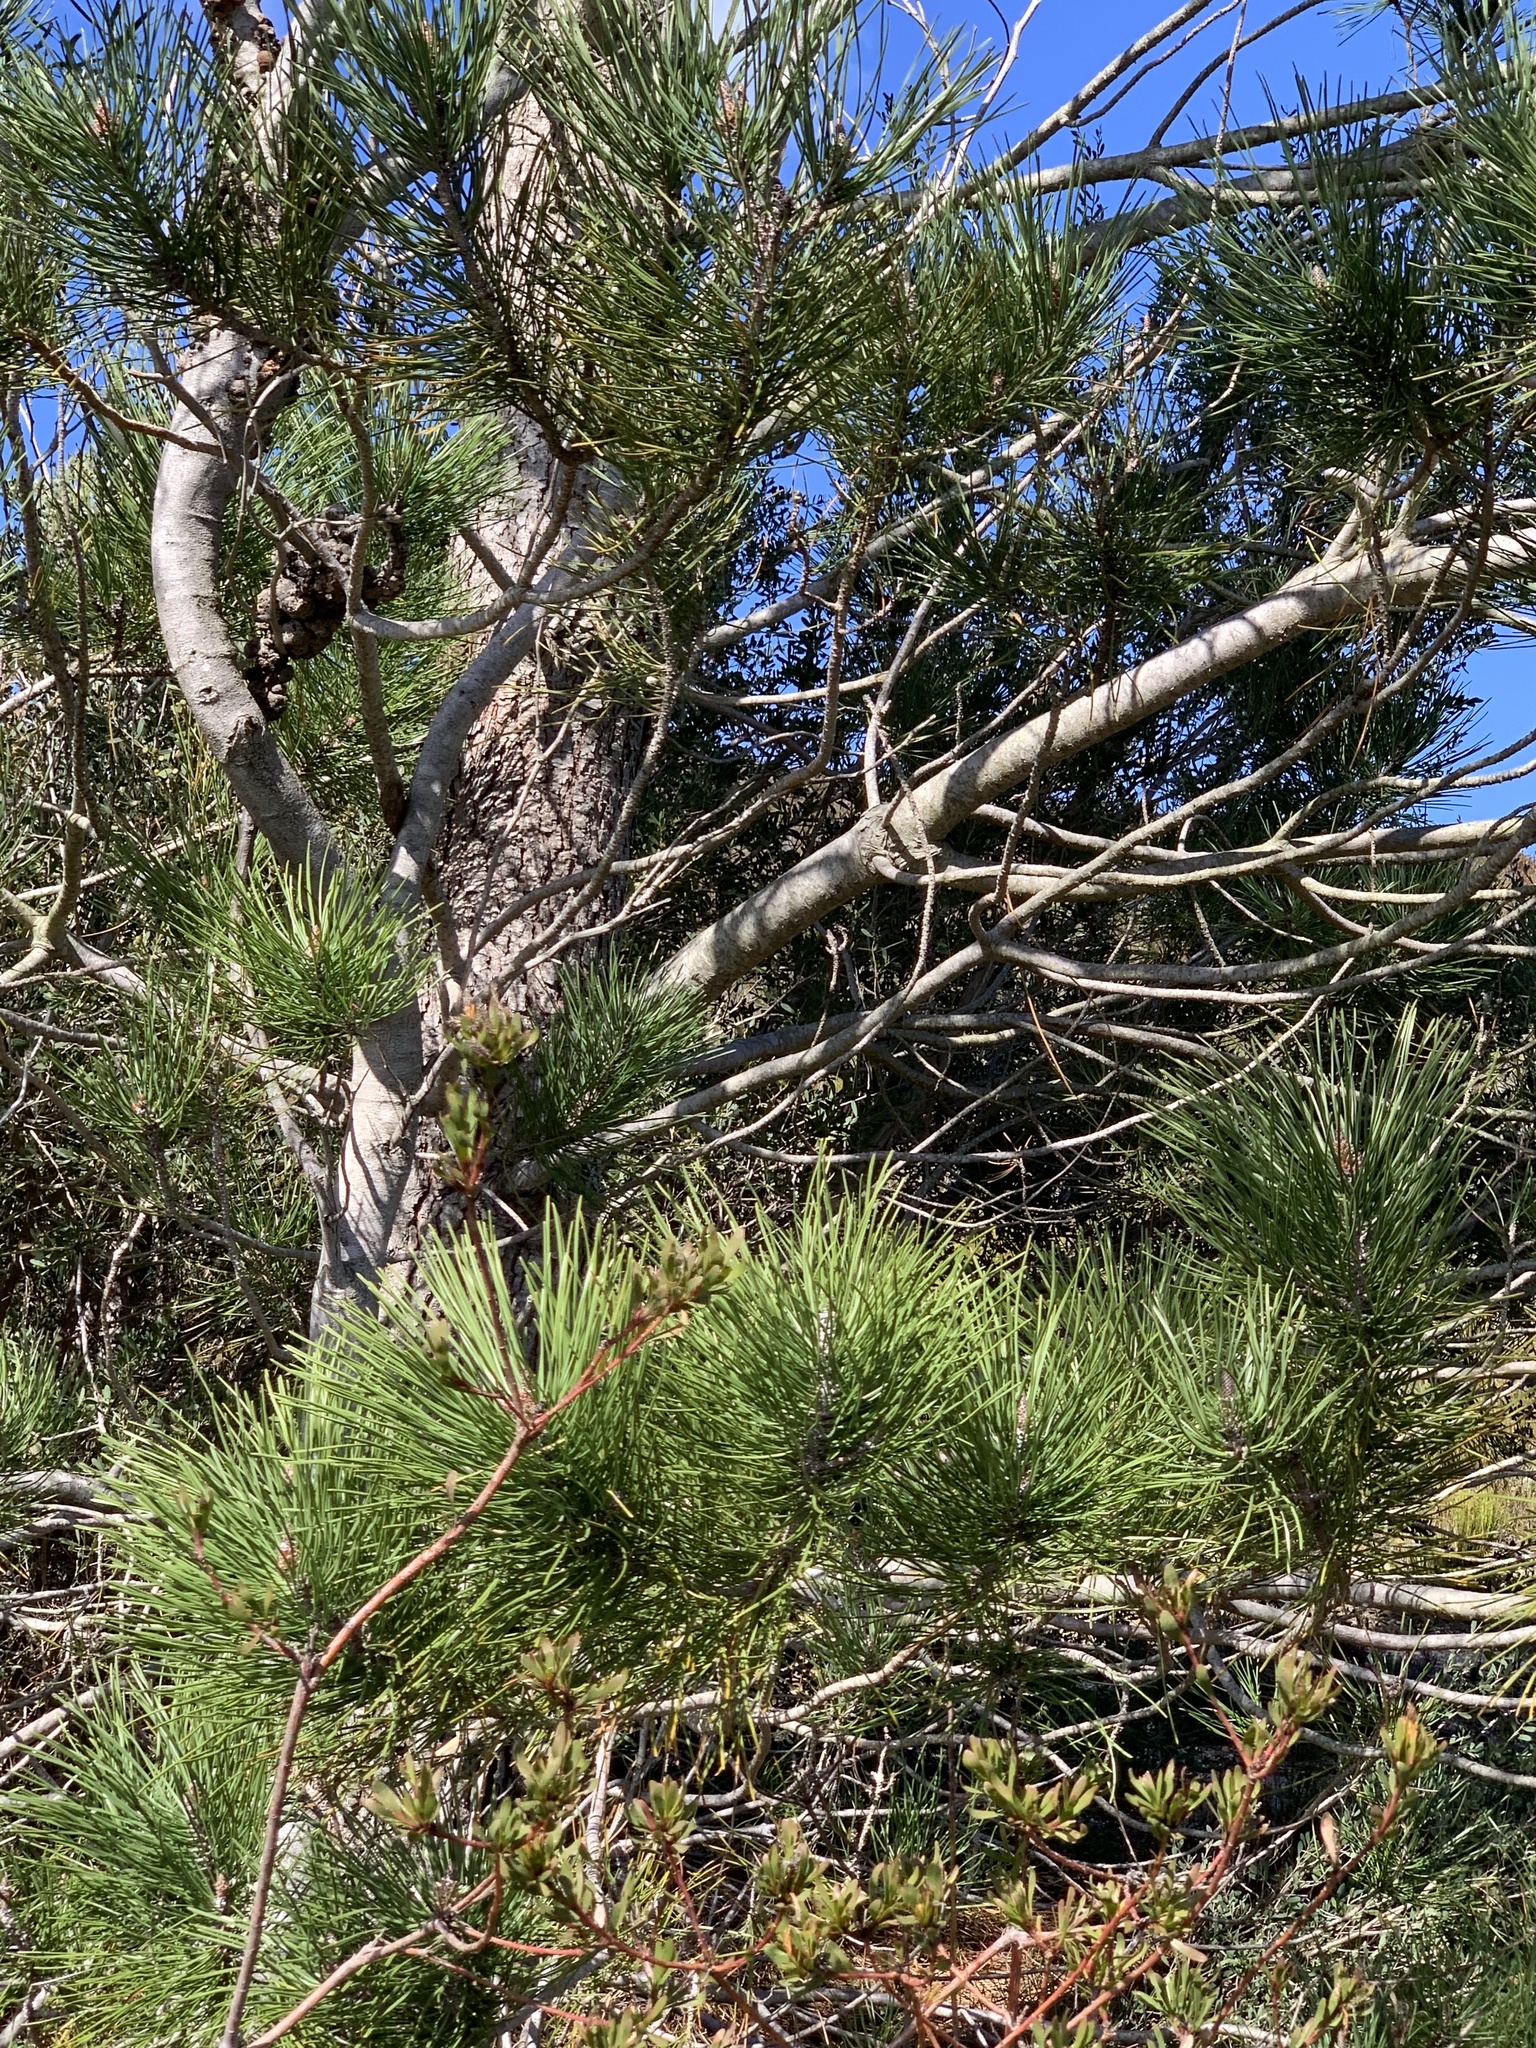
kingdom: Plantae
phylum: Tracheophyta
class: Pinopsida
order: Pinales
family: Pinaceae
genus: Pinus
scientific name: Pinus pinaster
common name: Maritime pine
